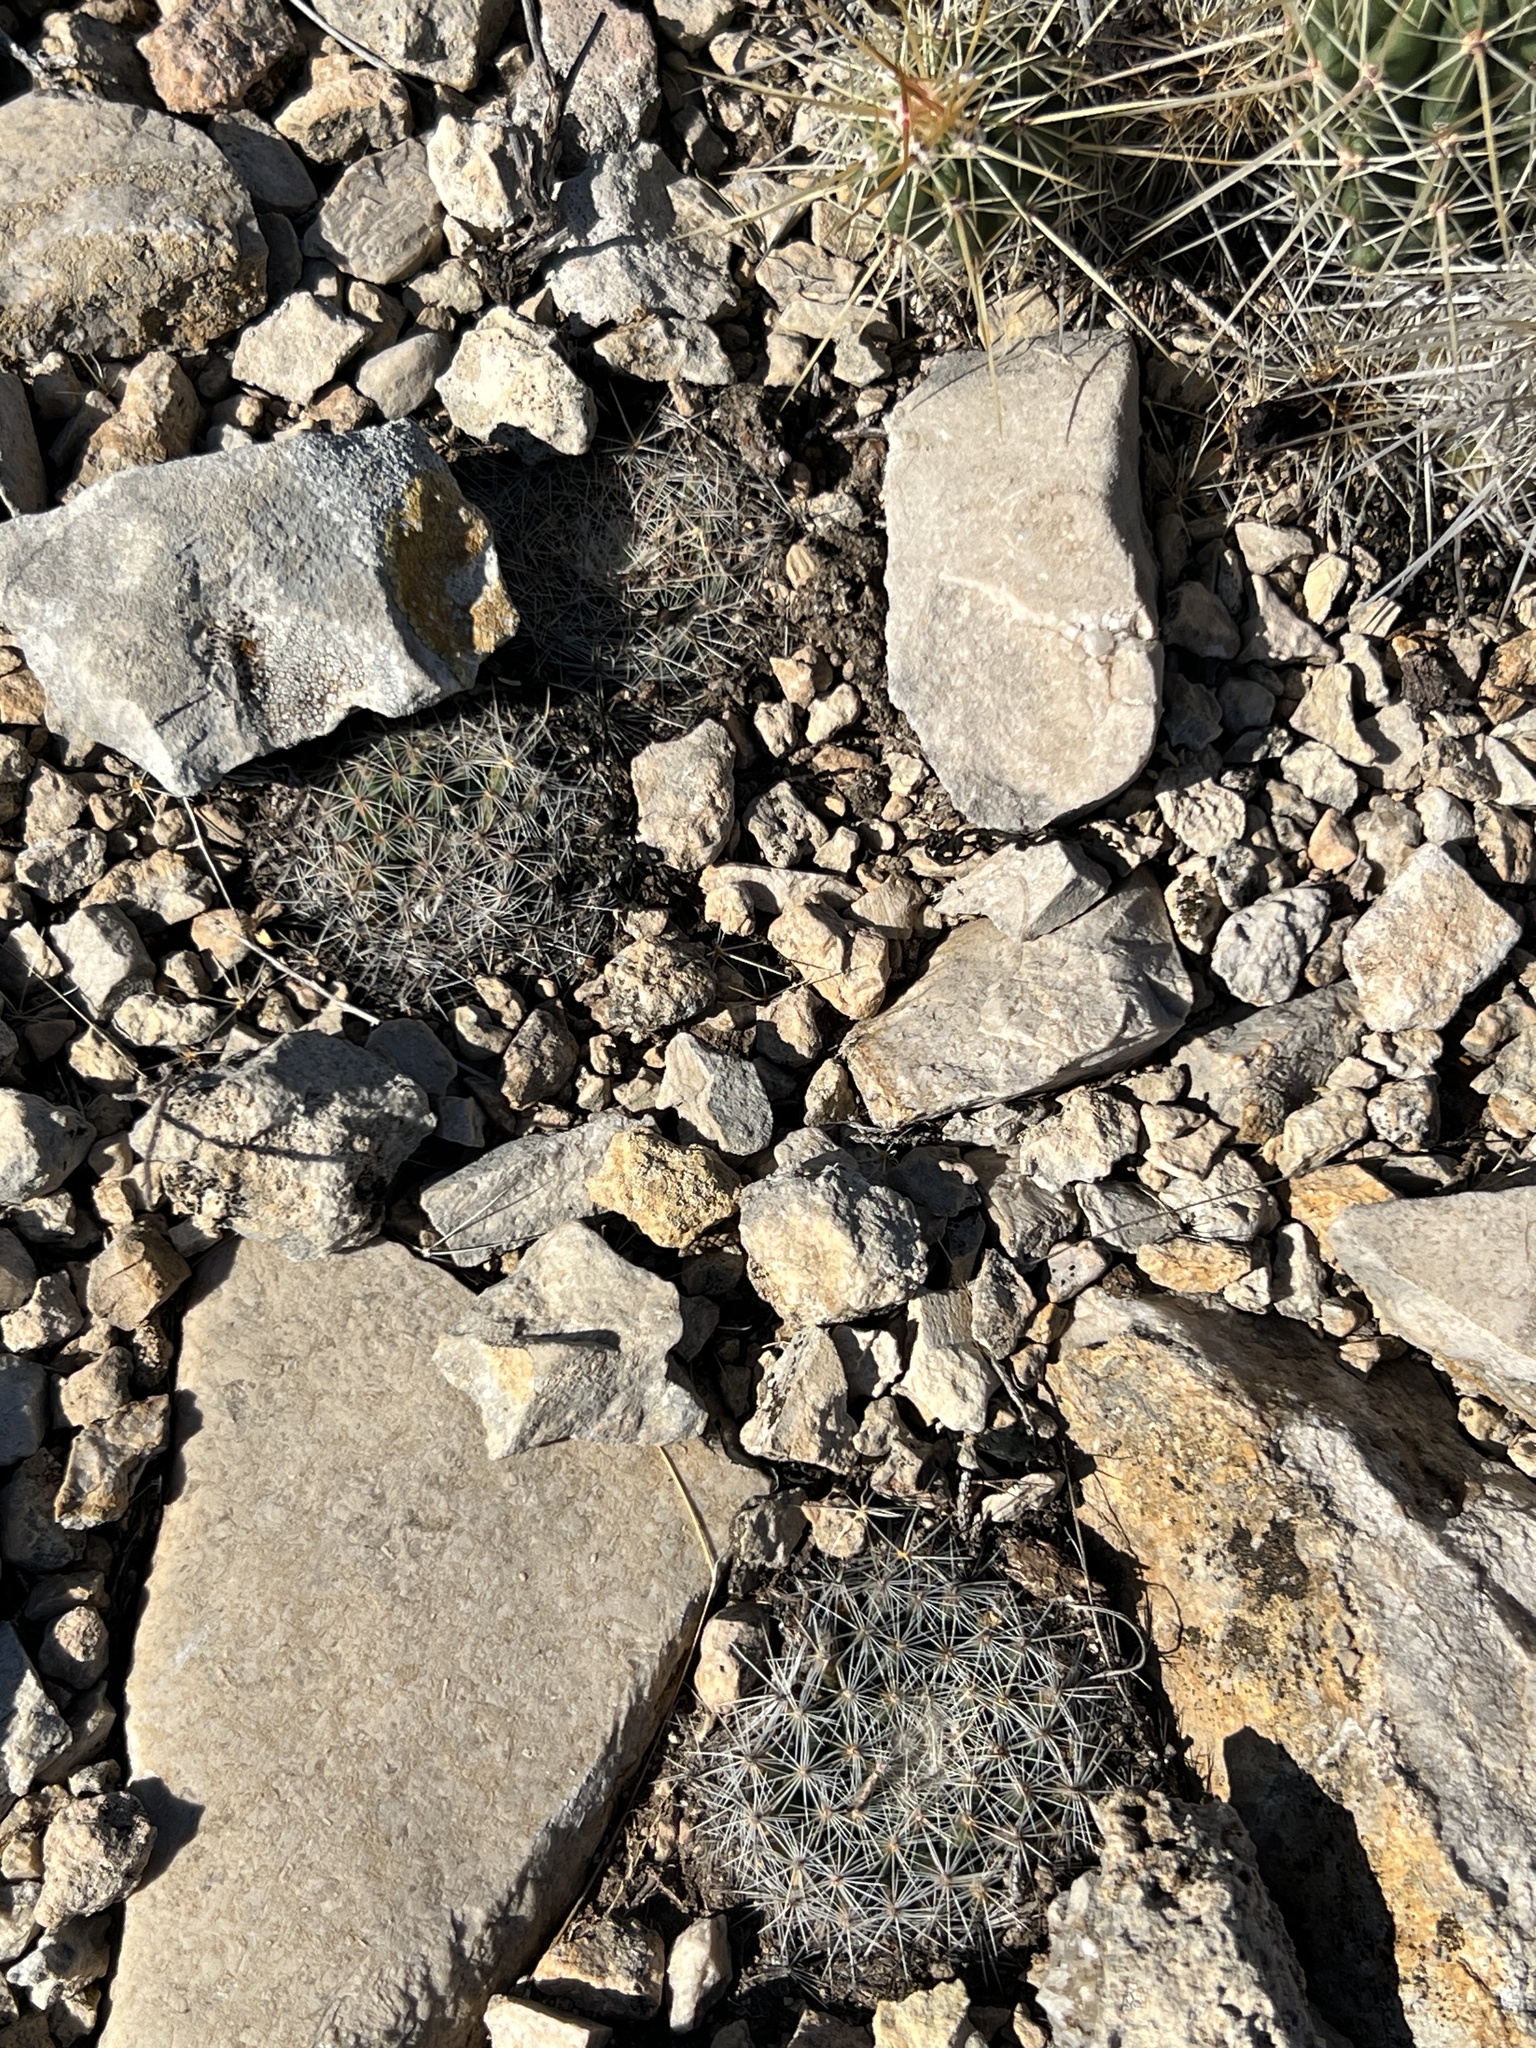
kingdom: Plantae
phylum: Tracheophyta
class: Magnoliopsida
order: Caryophyllales
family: Cactaceae
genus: Mammillaria
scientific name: Mammillaria heyderi
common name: Little nipple cactus
